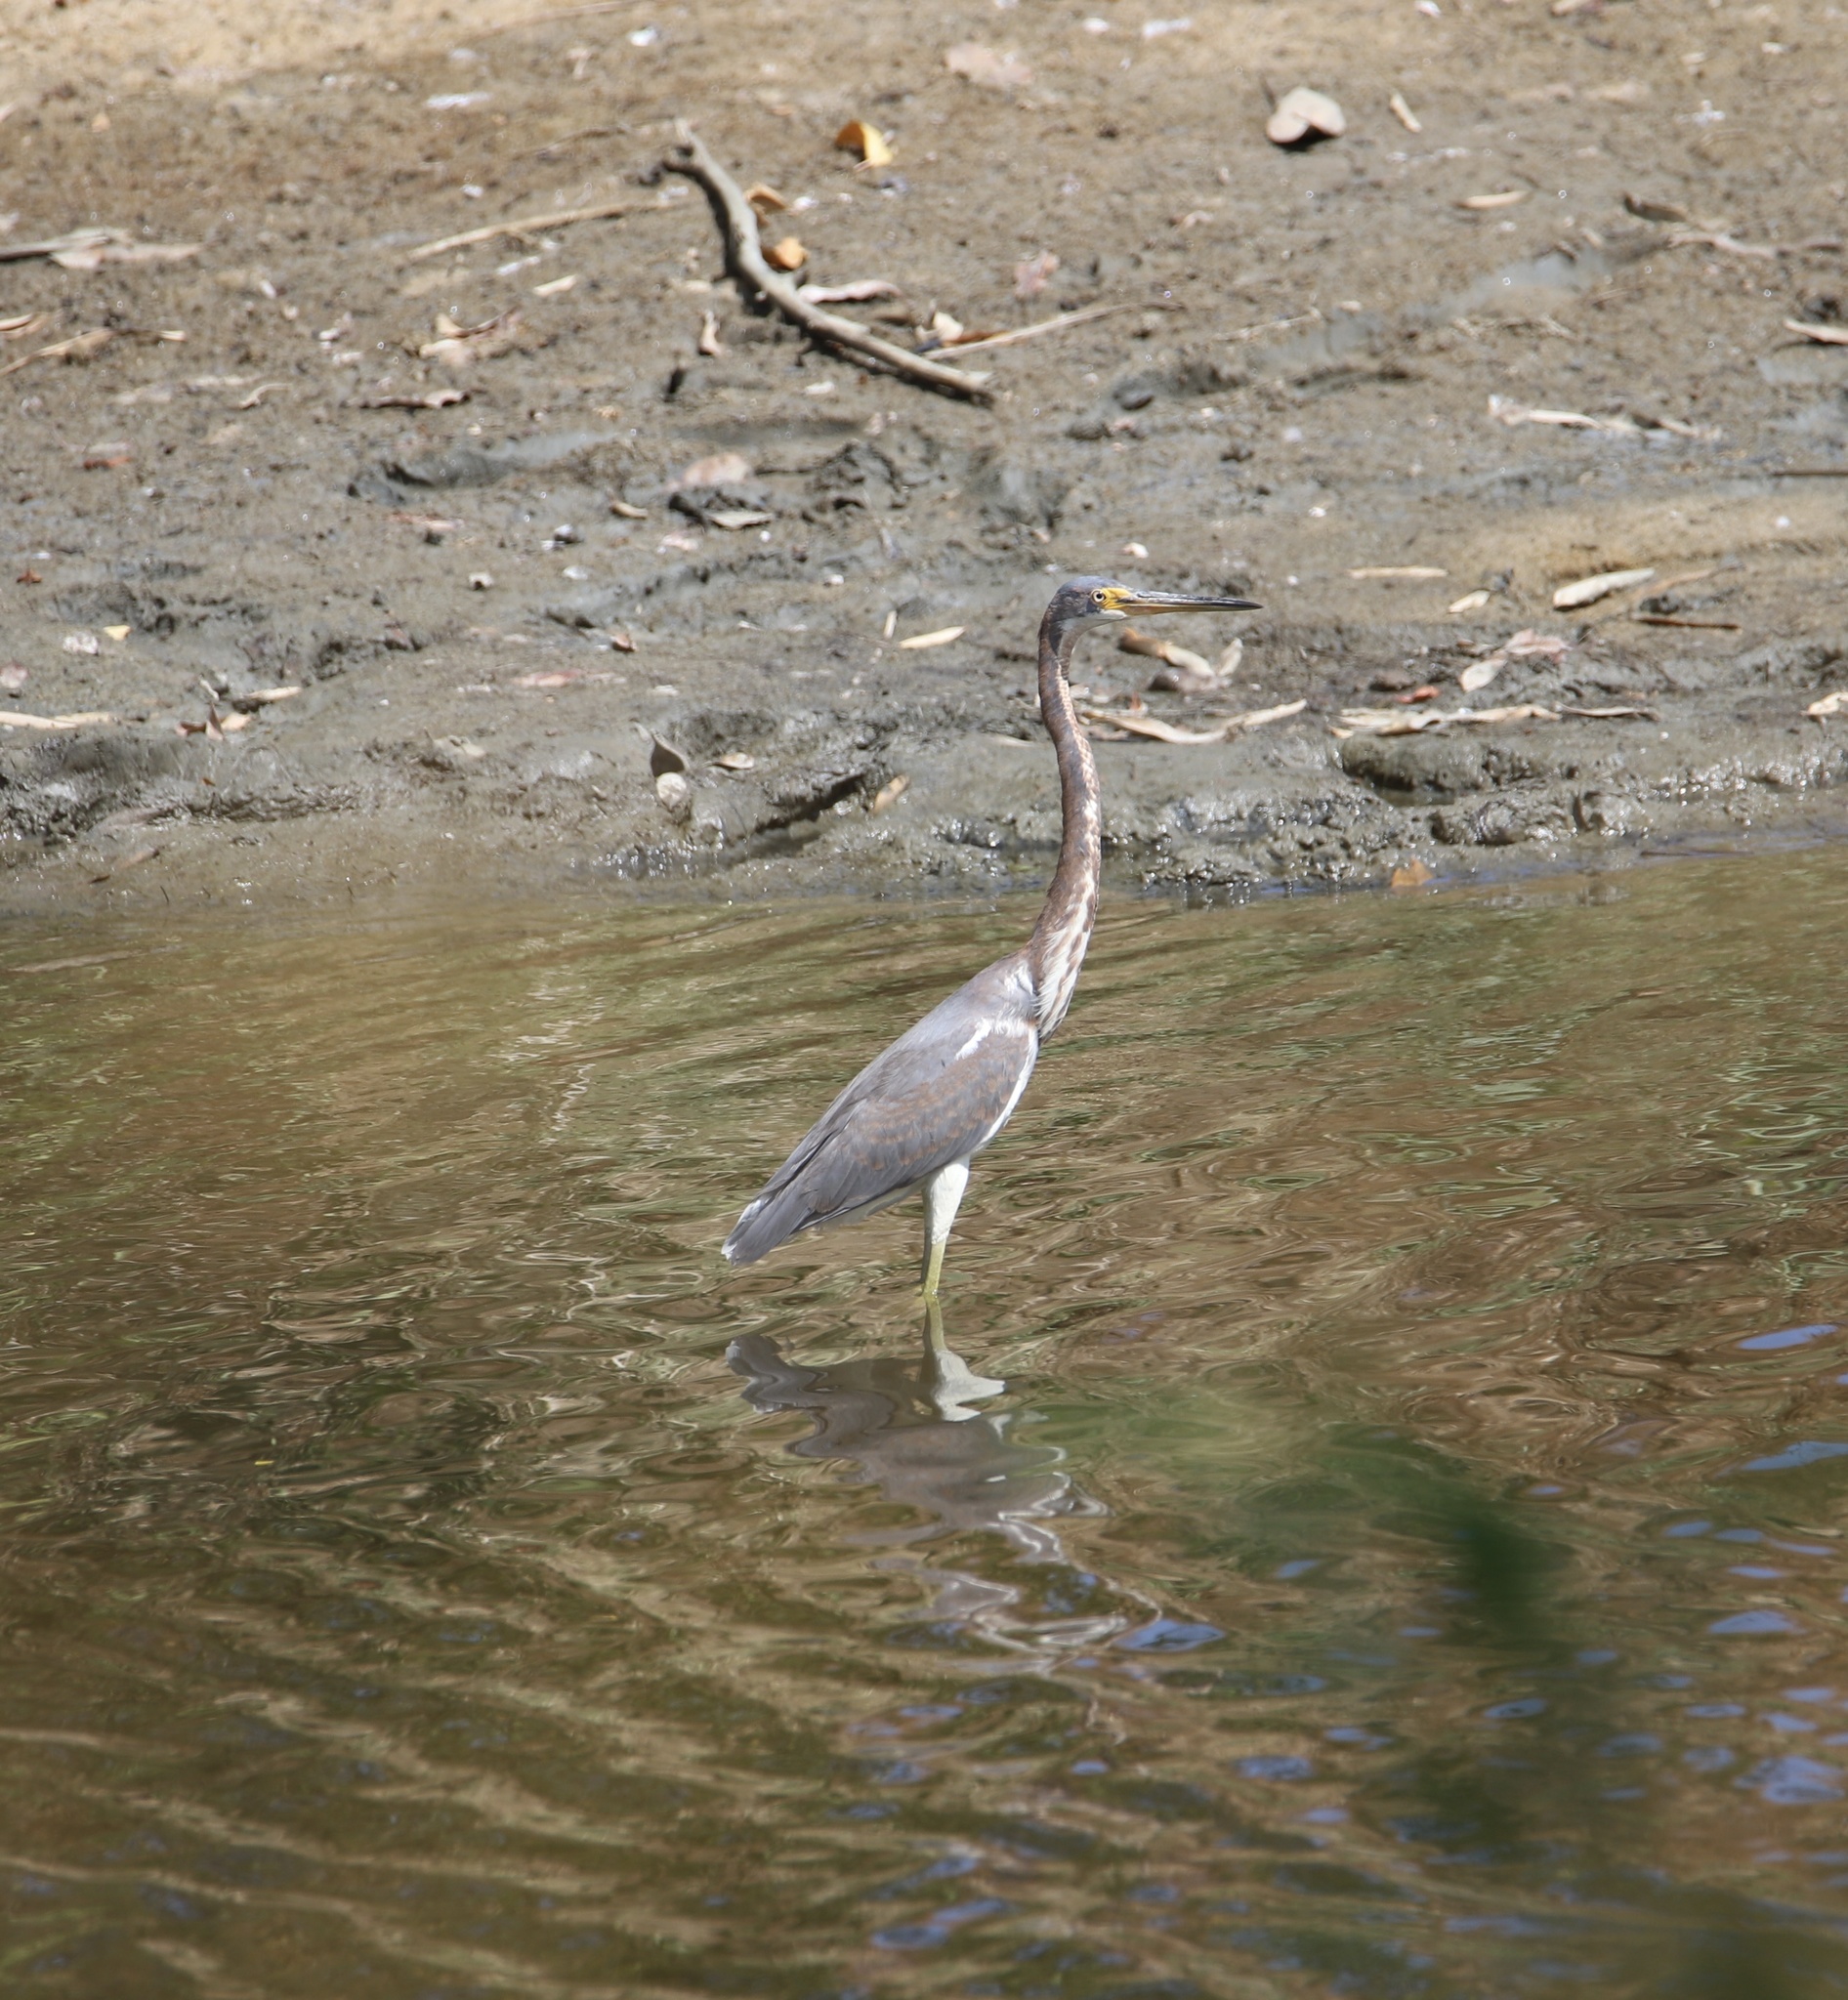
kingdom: Animalia
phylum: Chordata
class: Aves
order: Pelecaniformes
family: Ardeidae
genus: Egretta
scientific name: Egretta tricolor
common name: Tricolored heron
